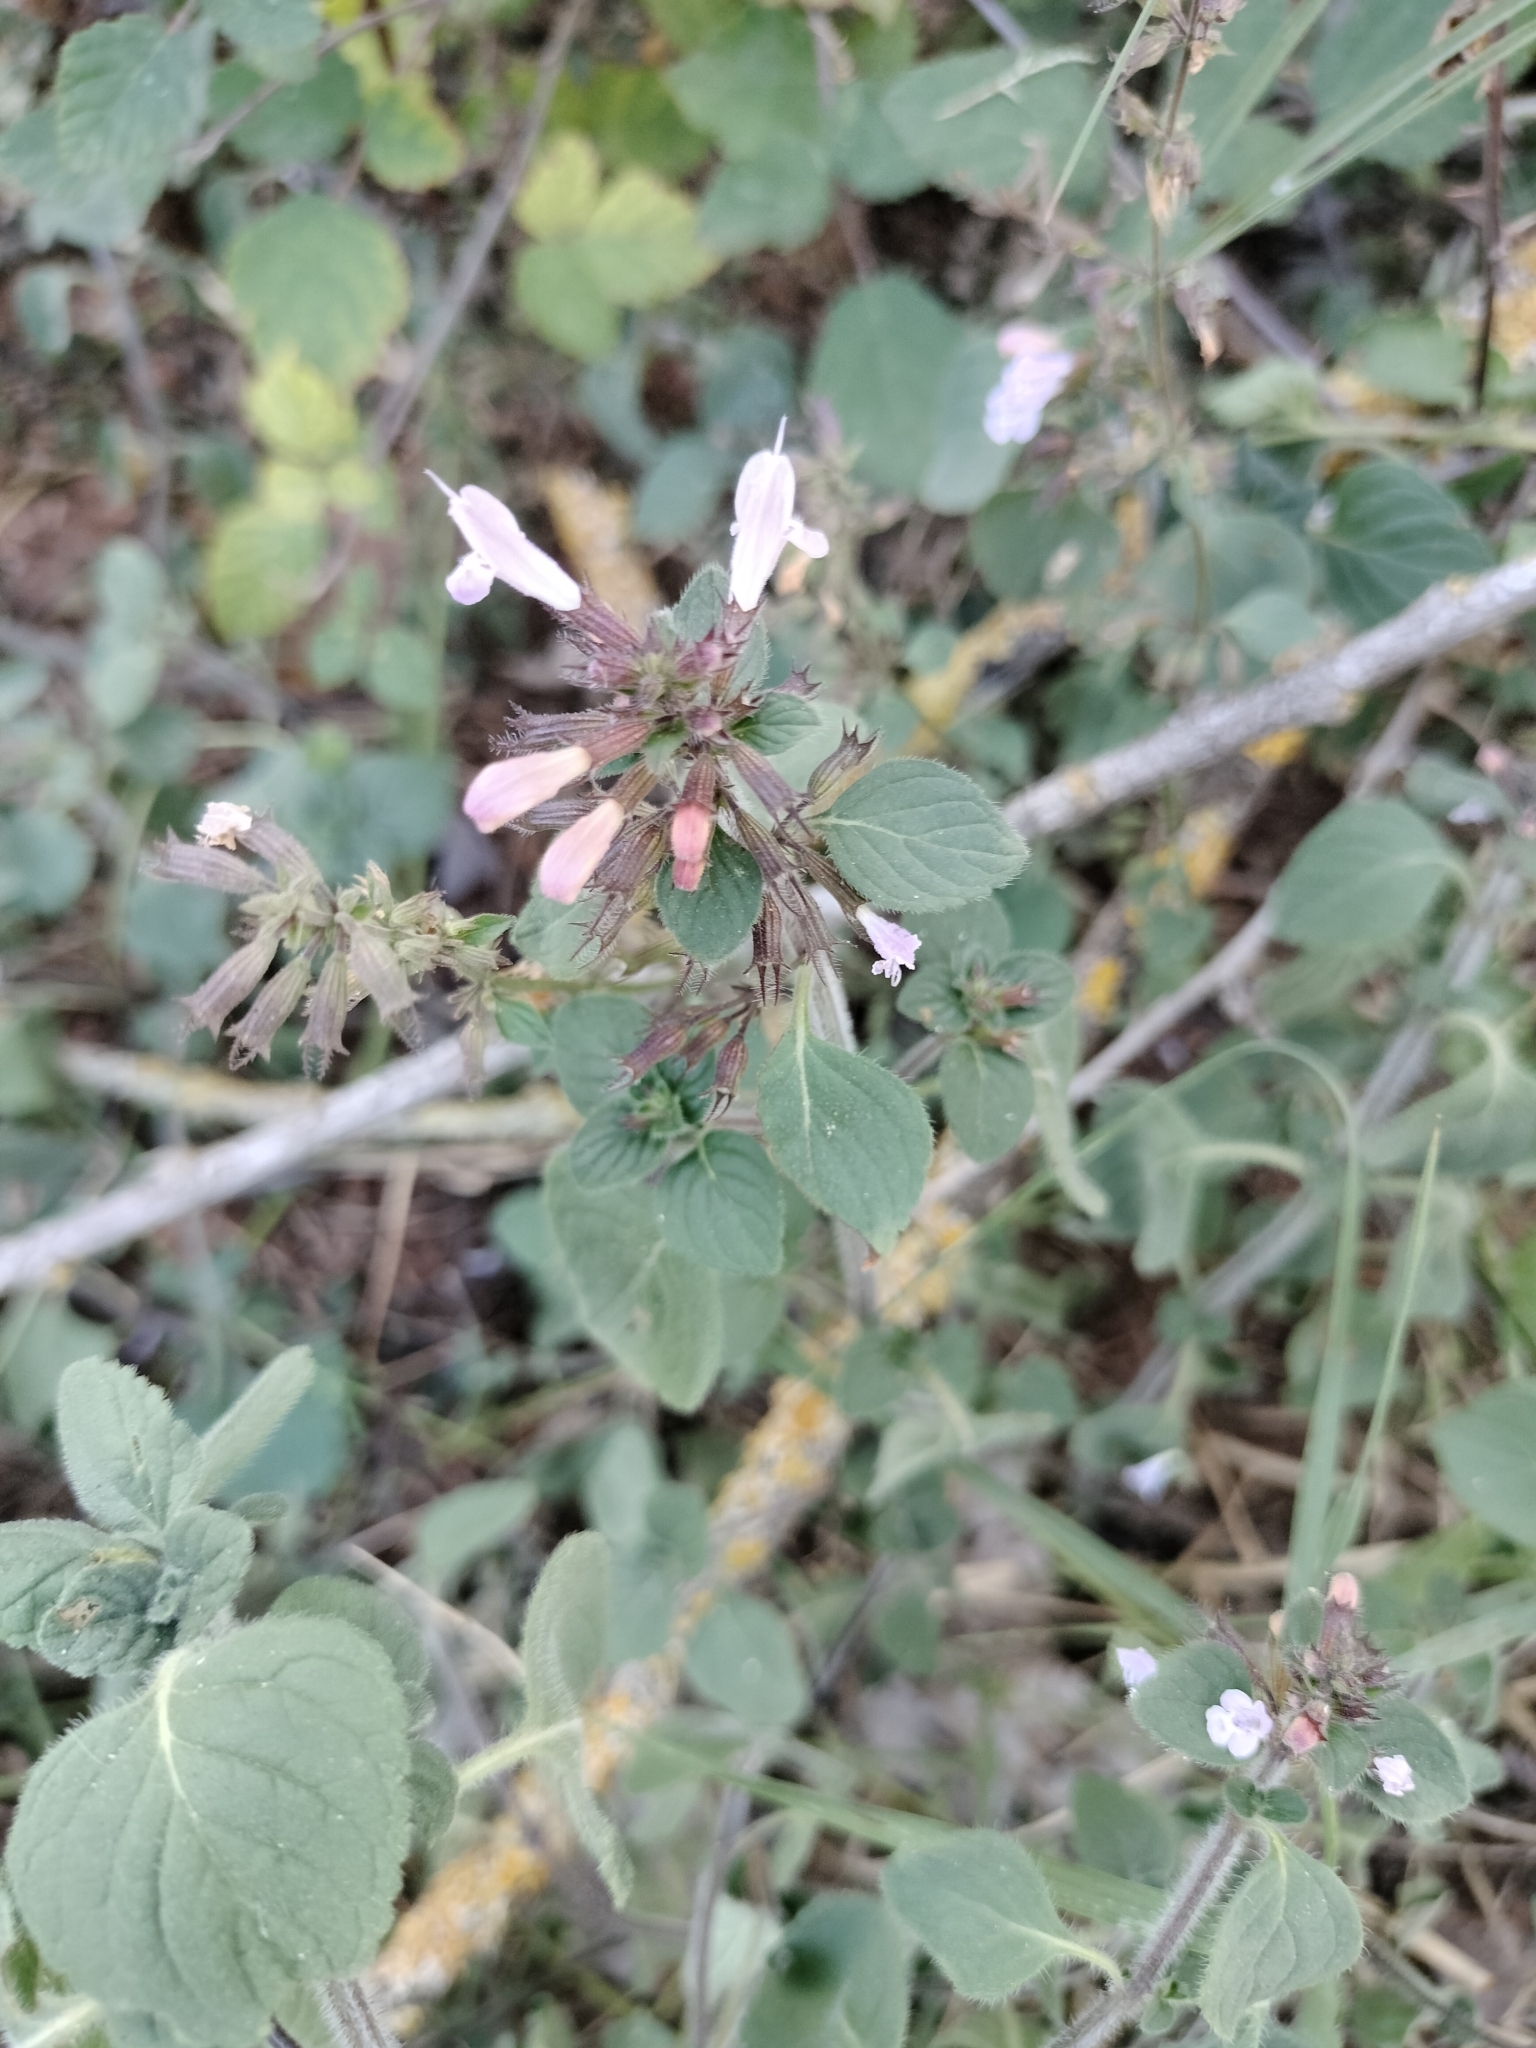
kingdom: Plantae
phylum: Tracheophyta
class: Magnoliopsida
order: Lamiales
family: Lamiaceae
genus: Clinopodium
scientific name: Clinopodium nepeta
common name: Lesser calamint
